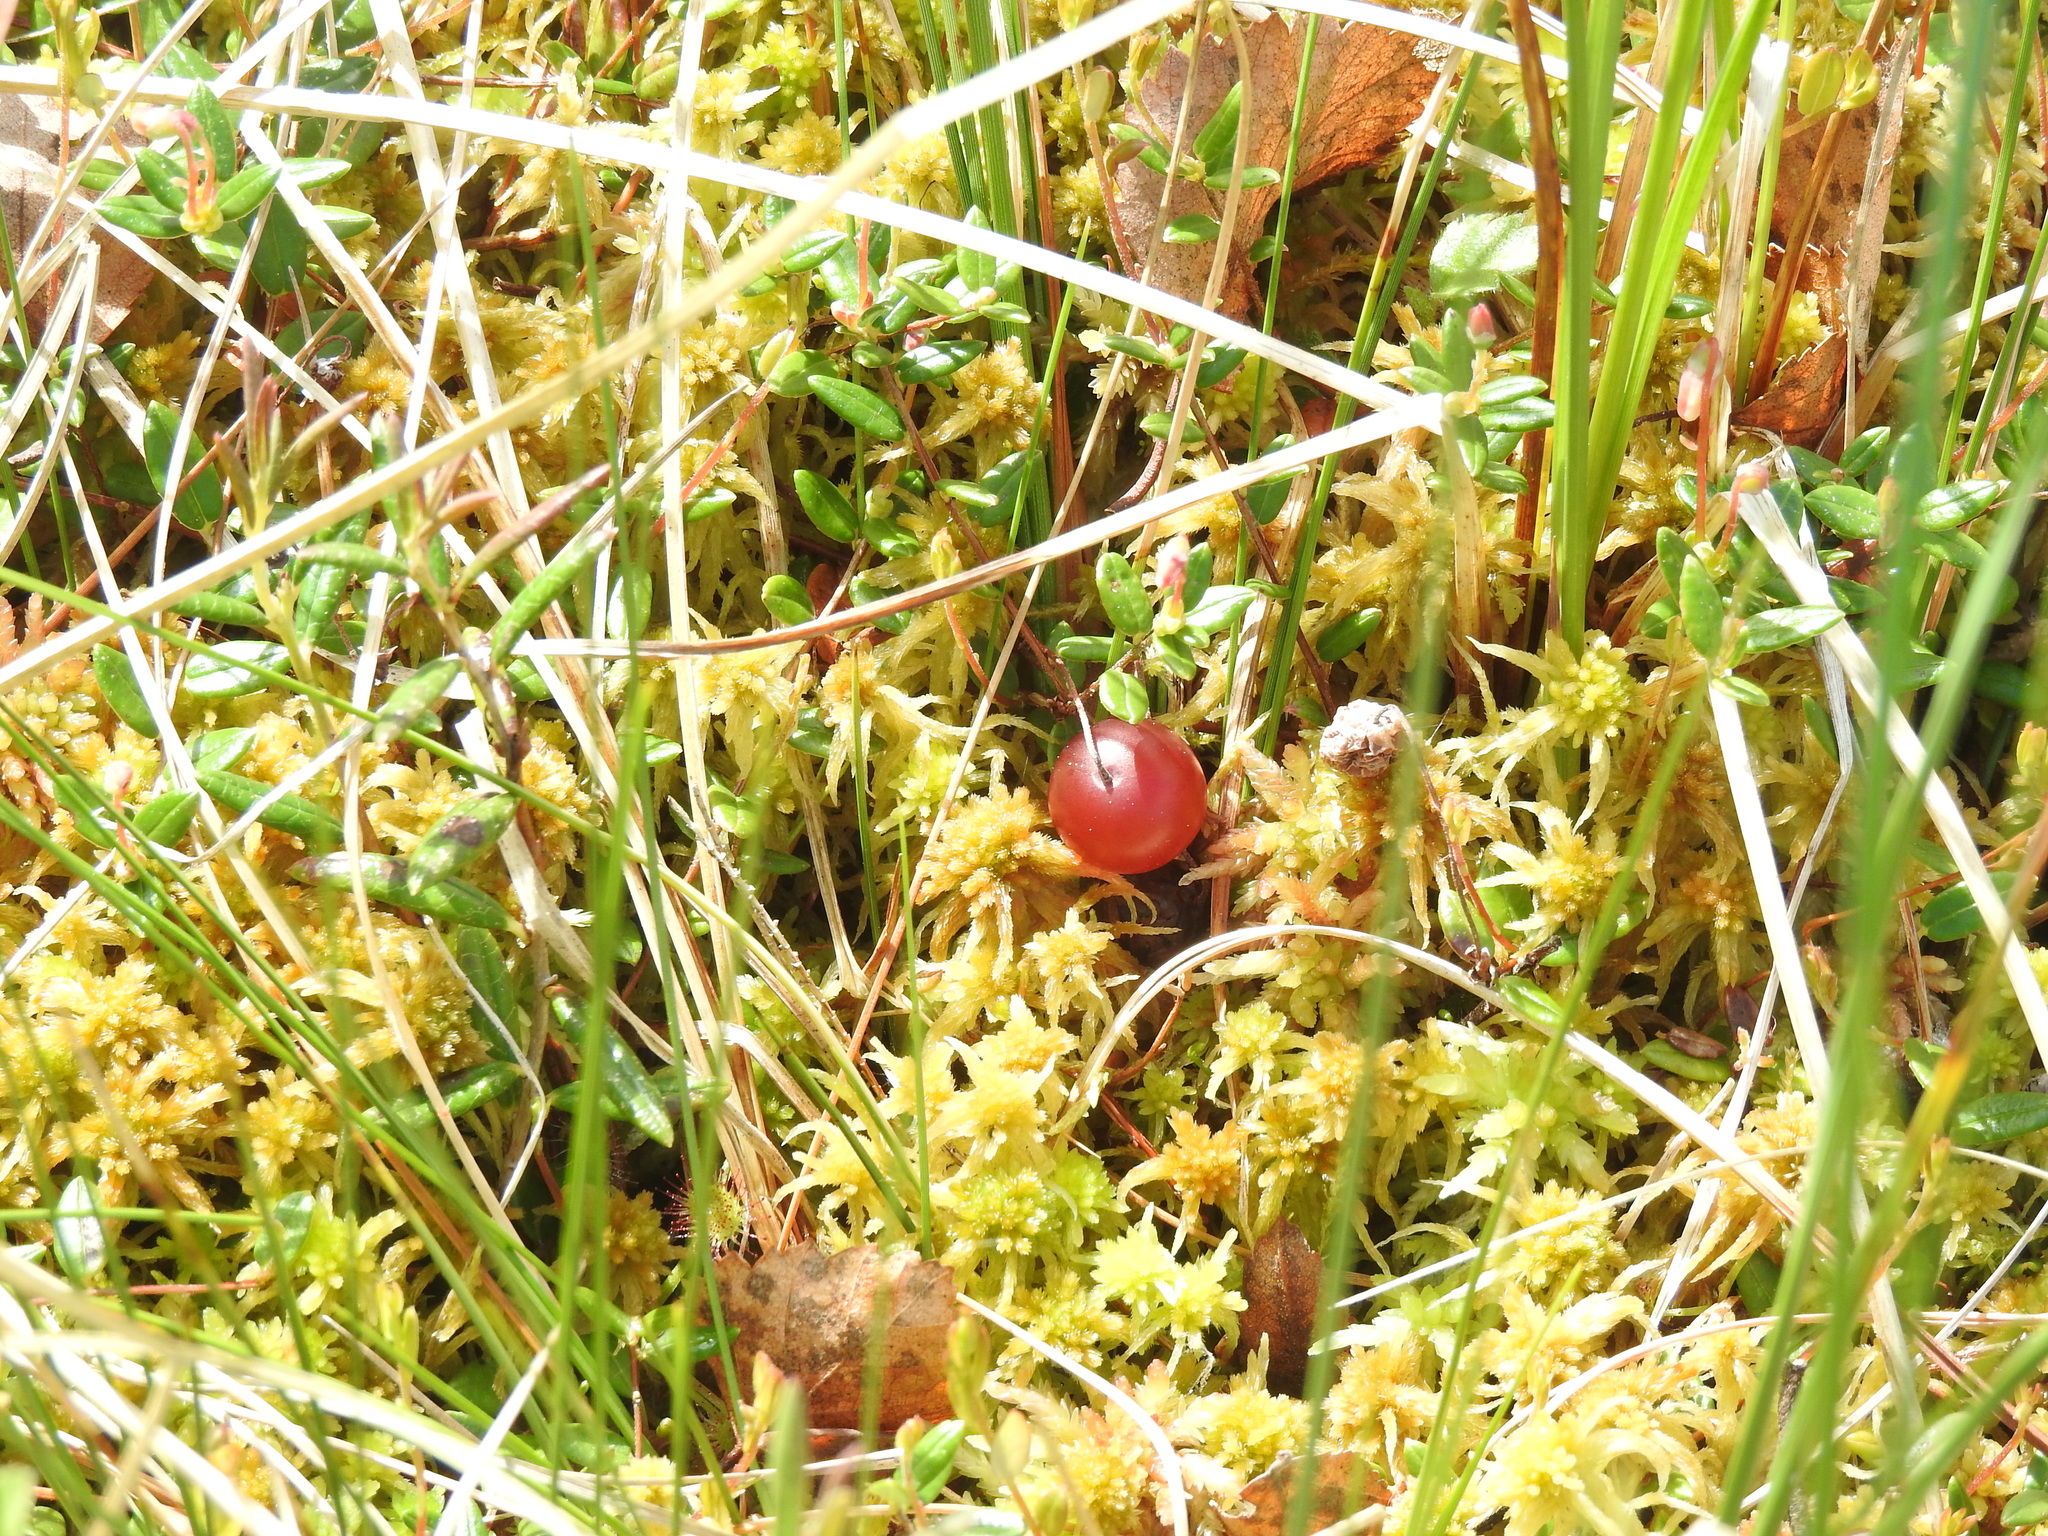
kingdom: Plantae
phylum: Tracheophyta
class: Magnoliopsida
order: Ericales
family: Ericaceae
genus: Vaccinium
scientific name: Vaccinium oxycoccos
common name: Cranberry
